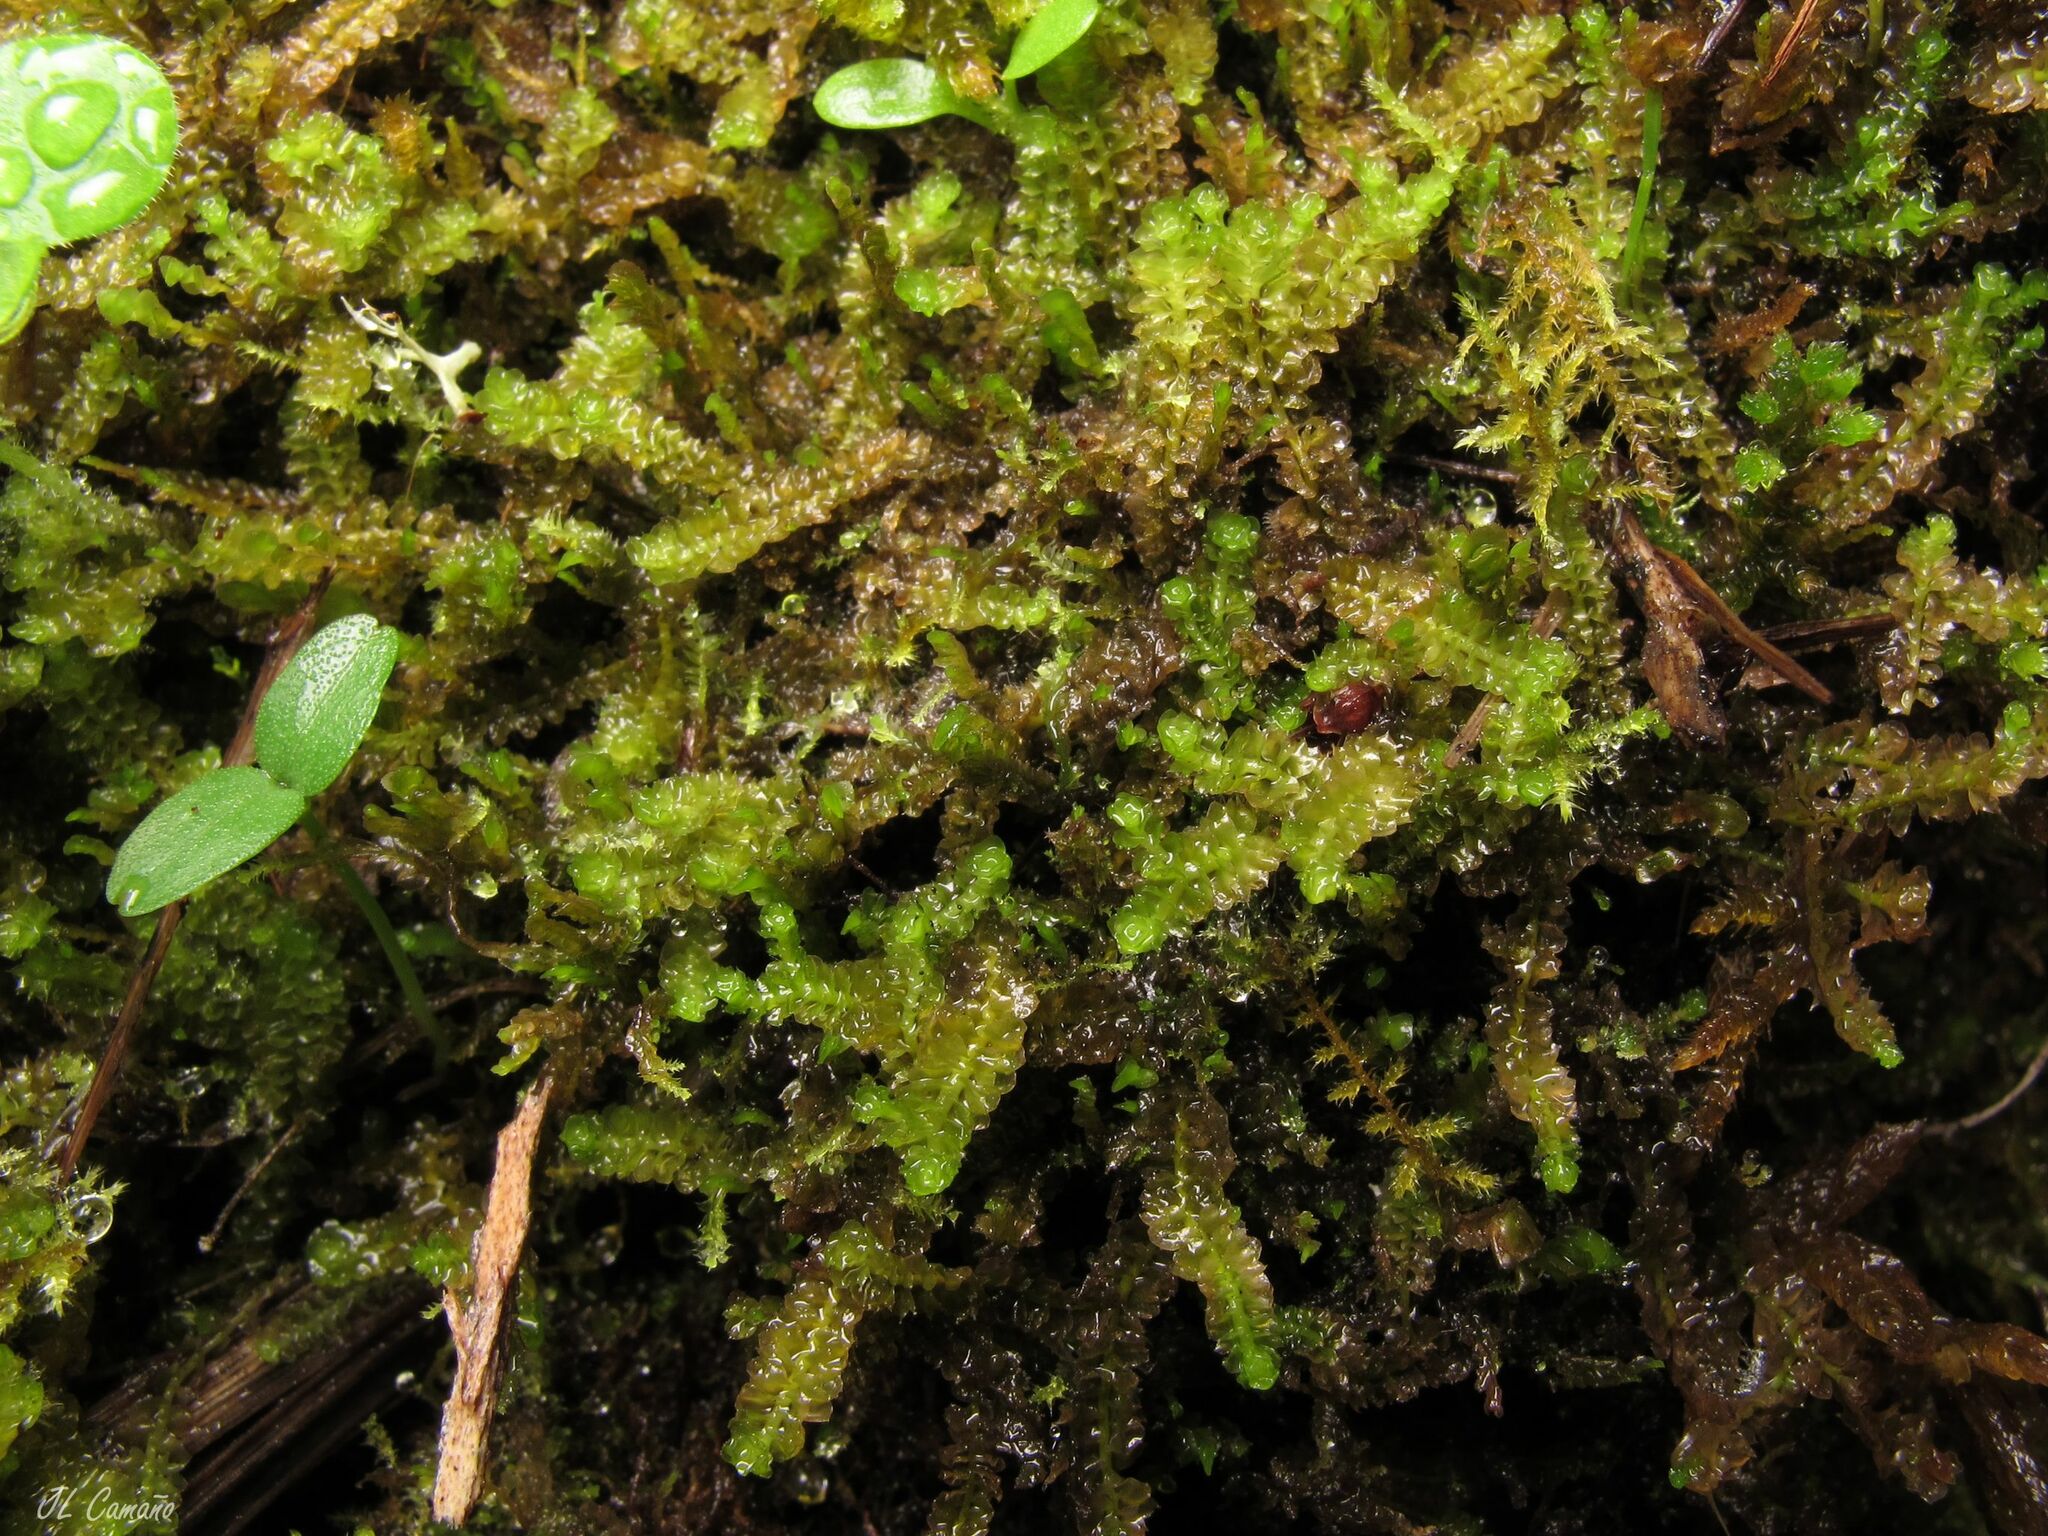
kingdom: Plantae
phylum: Marchantiophyta
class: Jungermanniopsida
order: Jungermanniales
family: Lophoziaceae
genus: Trilophozia
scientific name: Trilophozia quinquedentata
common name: Large notchwort
